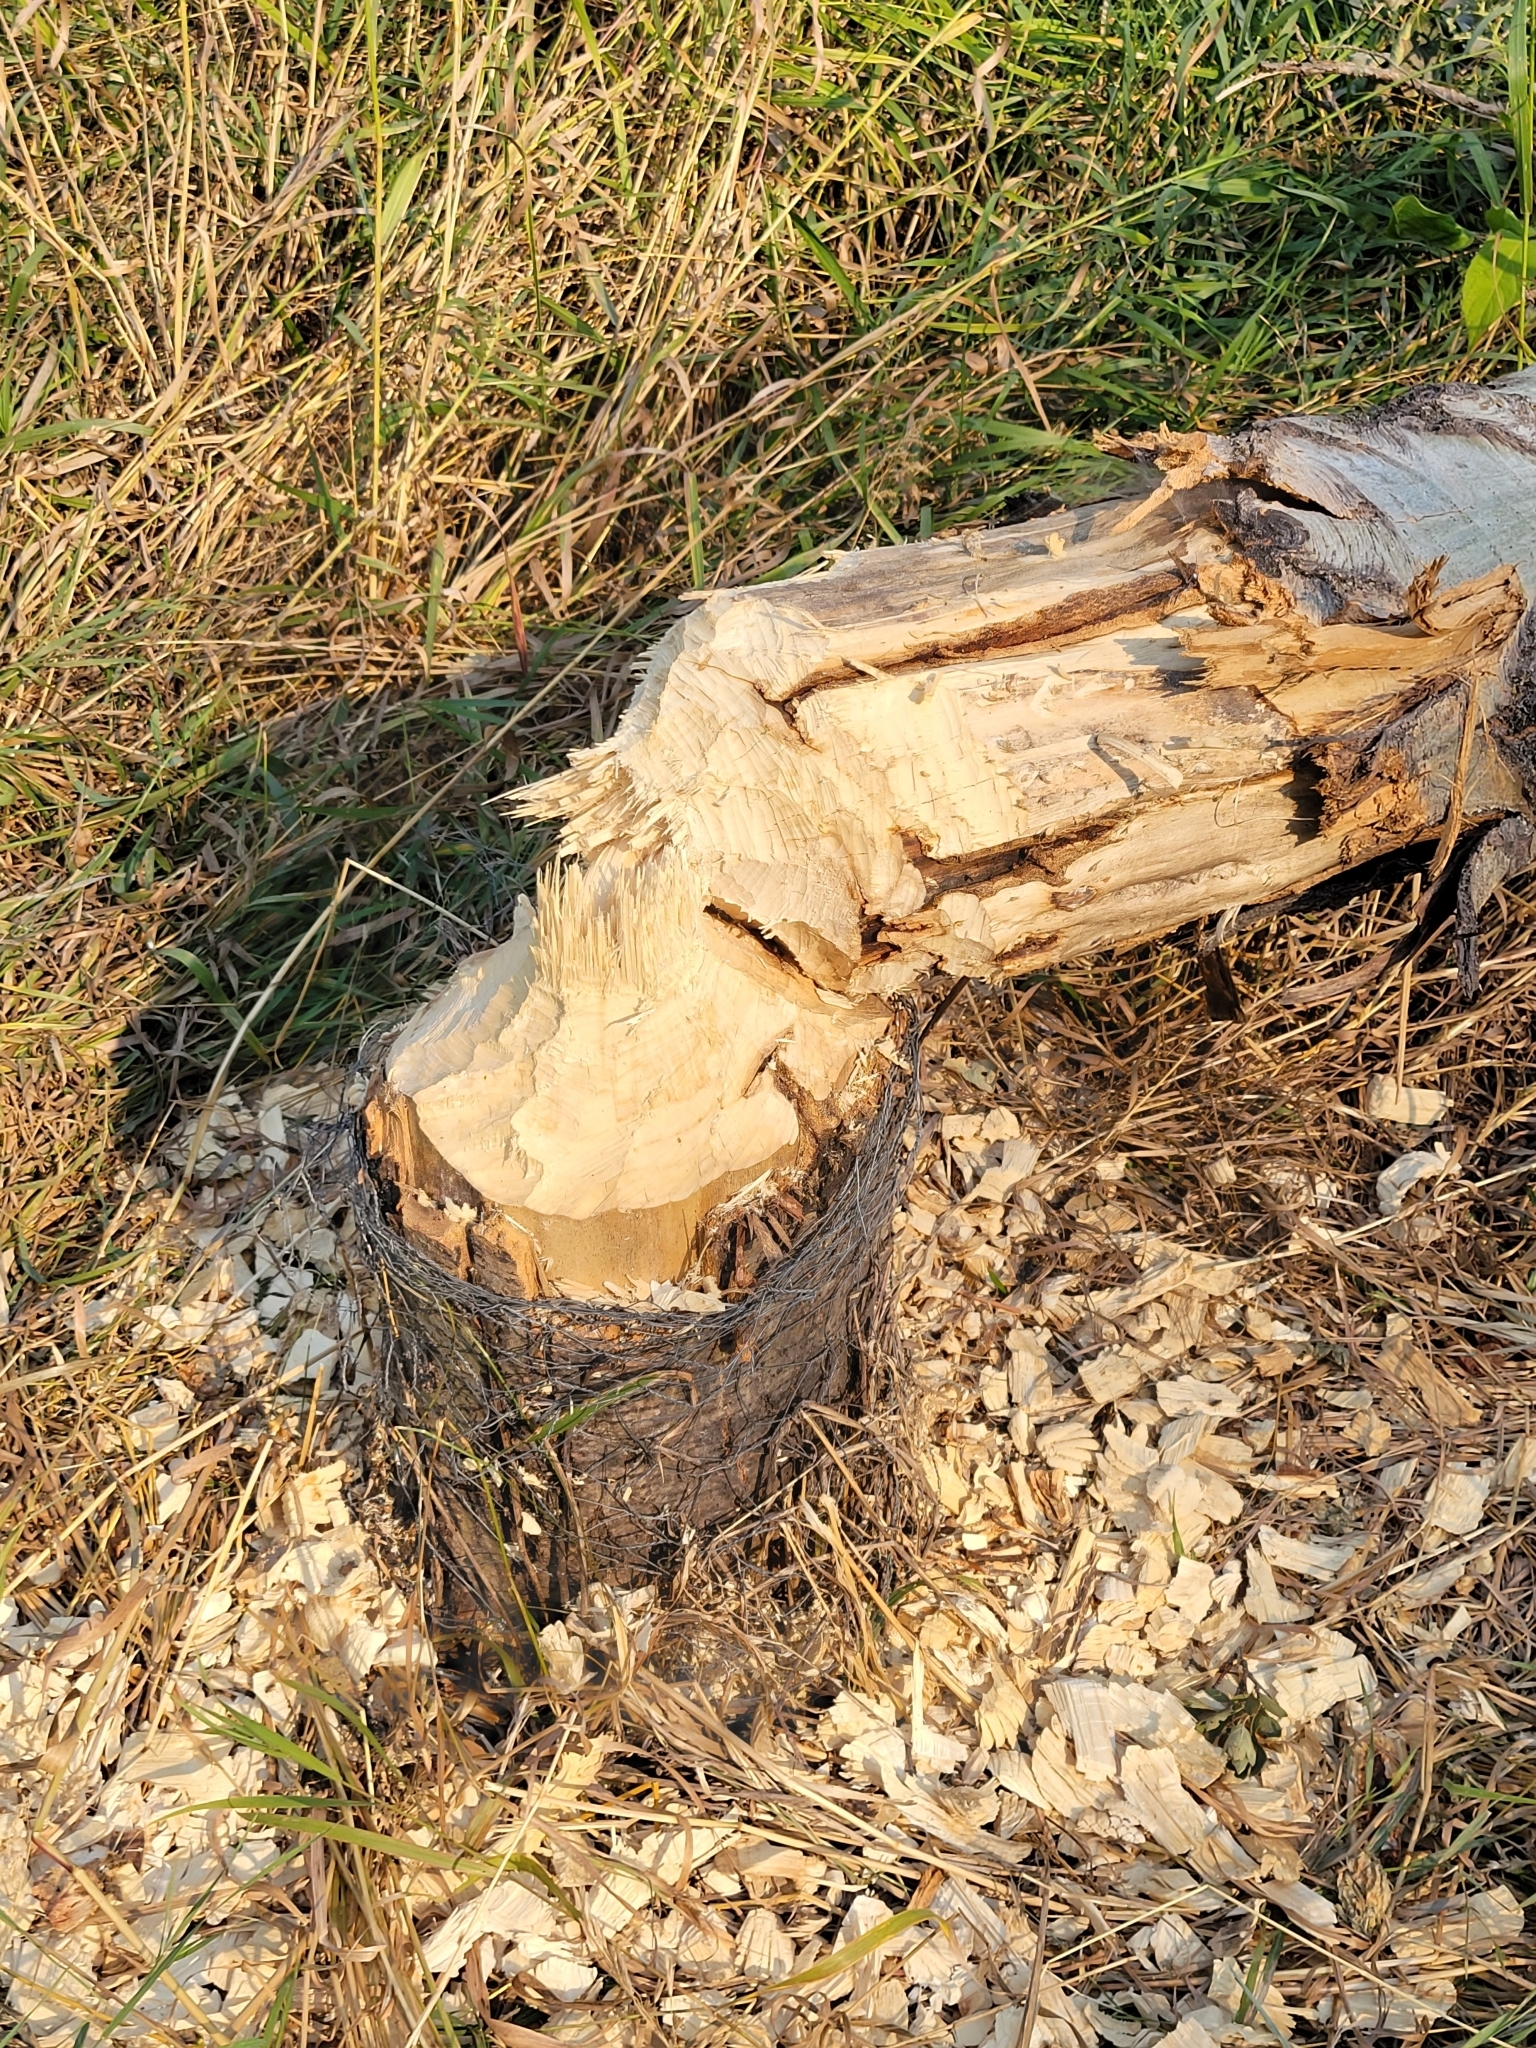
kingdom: Animalia
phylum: Chordata
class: Mammalia
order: Rodentia
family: Castoridae
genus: Castor
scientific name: Castor canadensis
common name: American beaver
